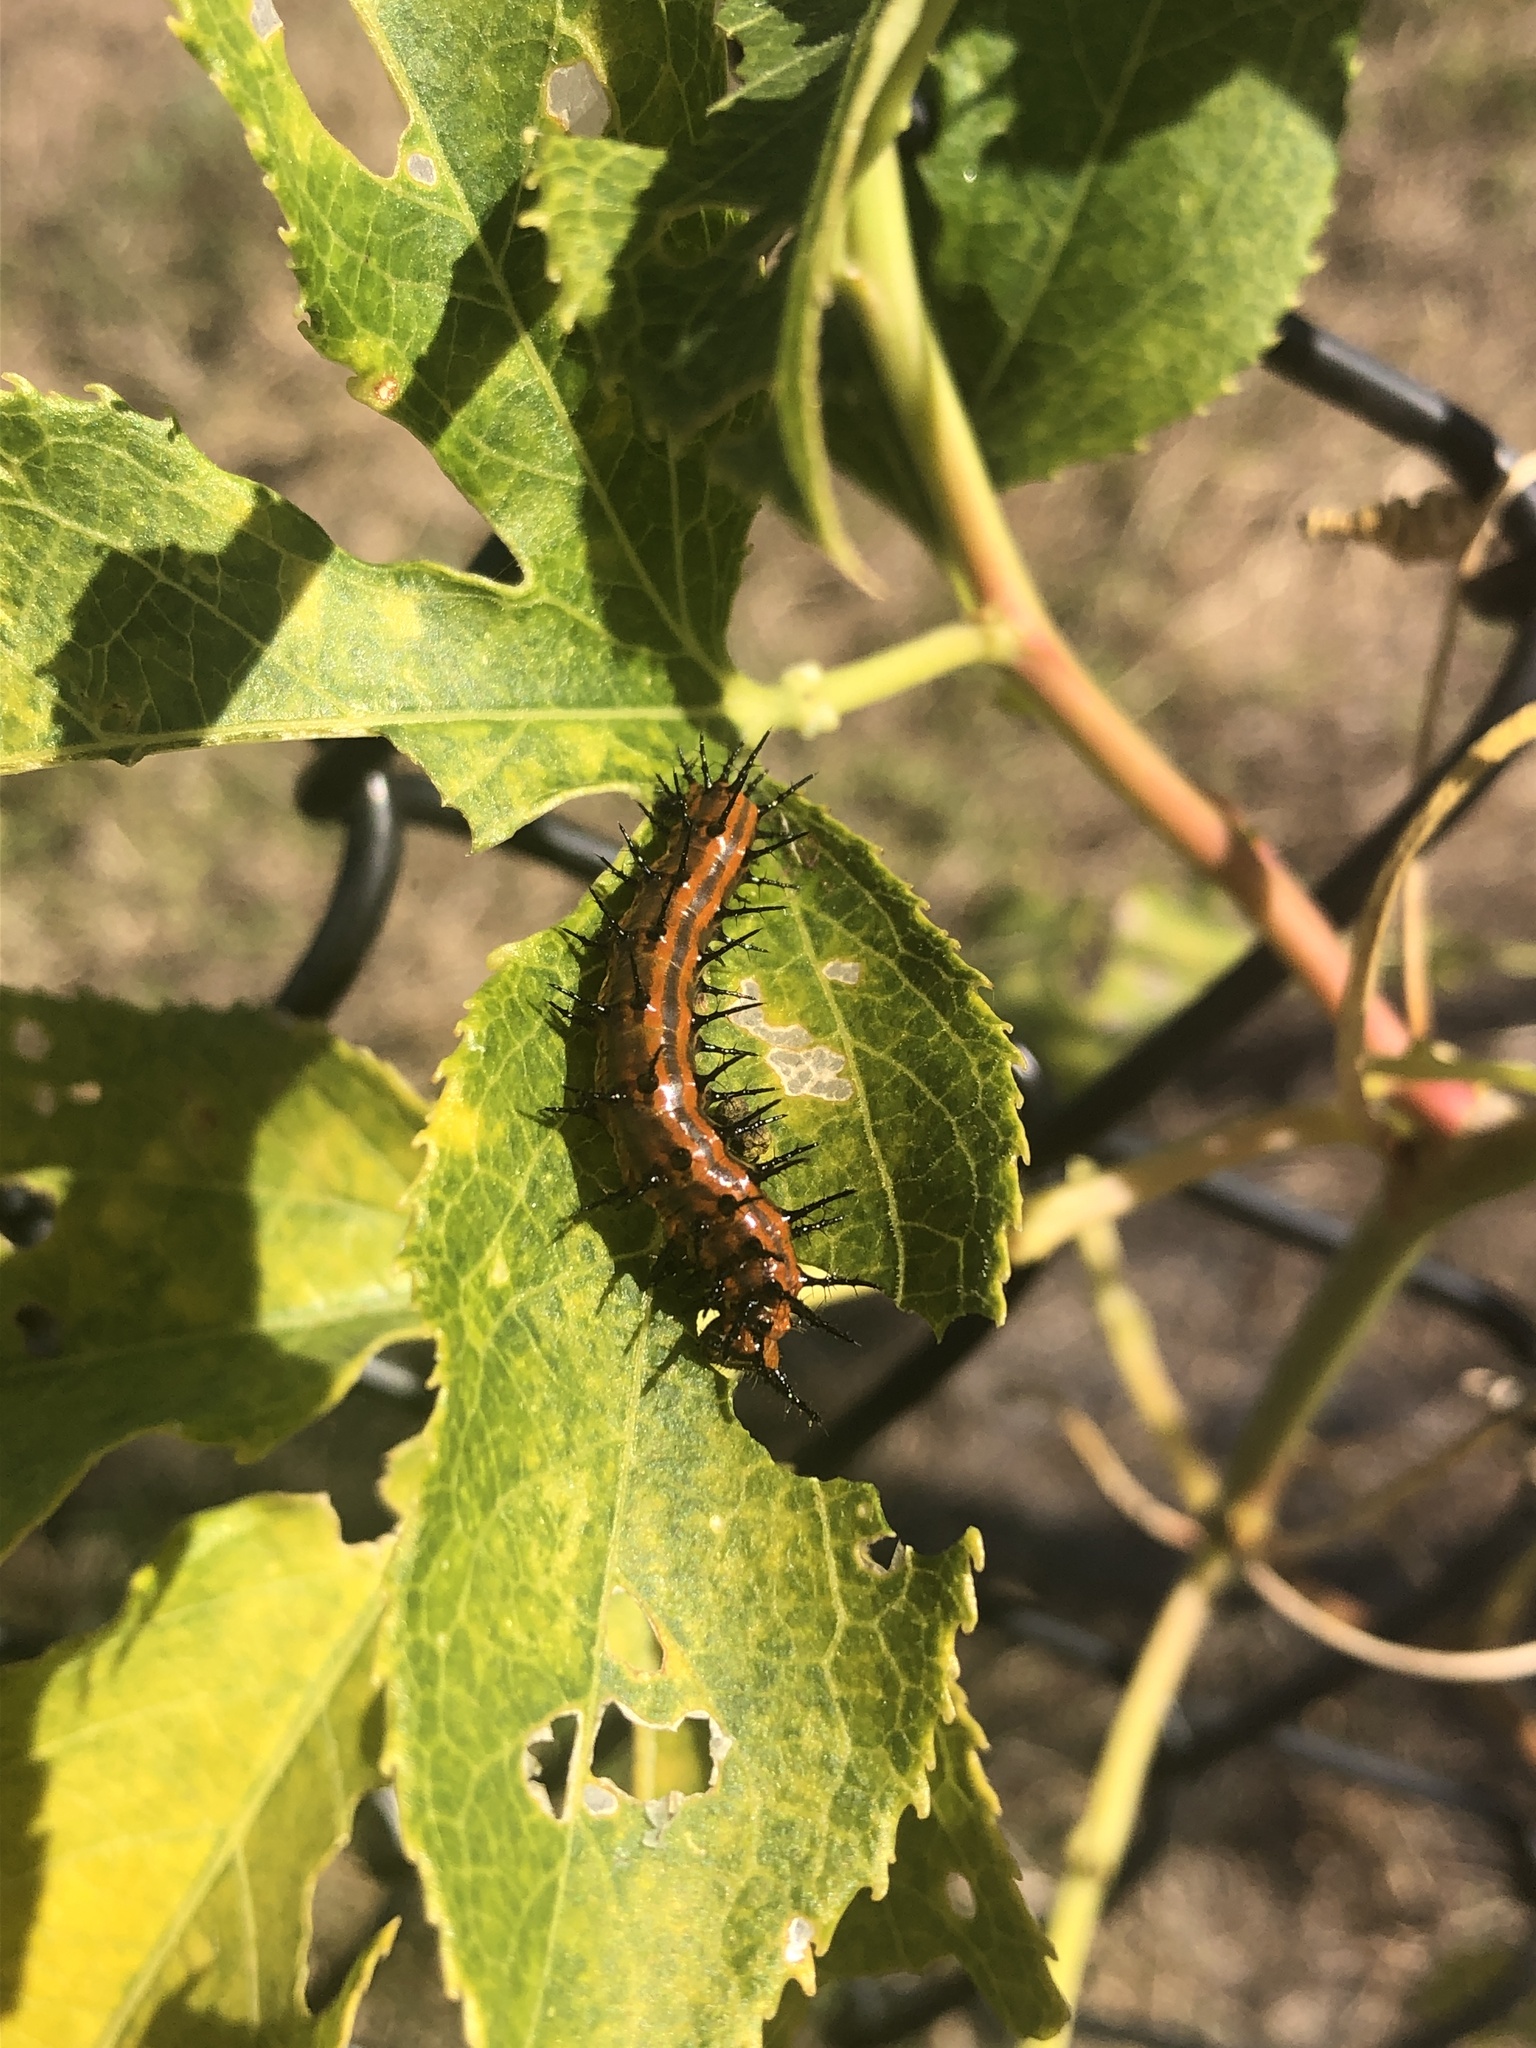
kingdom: Animalia
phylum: Arthropoda
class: Insecta
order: Lepidoptera
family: Nymphalidae
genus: Dione
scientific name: Dione vanillae
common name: Gulf fritillary
